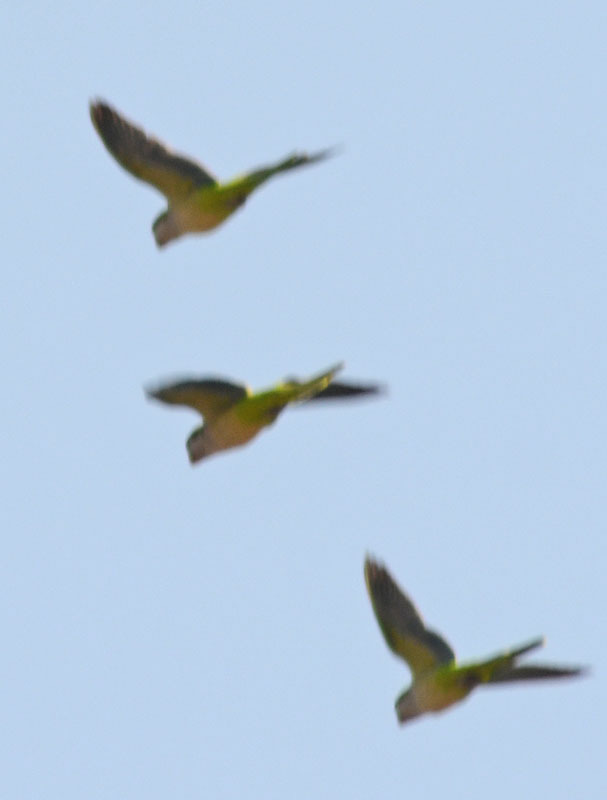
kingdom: Animalia
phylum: Chordata
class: Aves
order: Psittaciformes
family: Psittacidae
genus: Myiopsitta
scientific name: Myiopsitta monachus
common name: Monk parakeet
